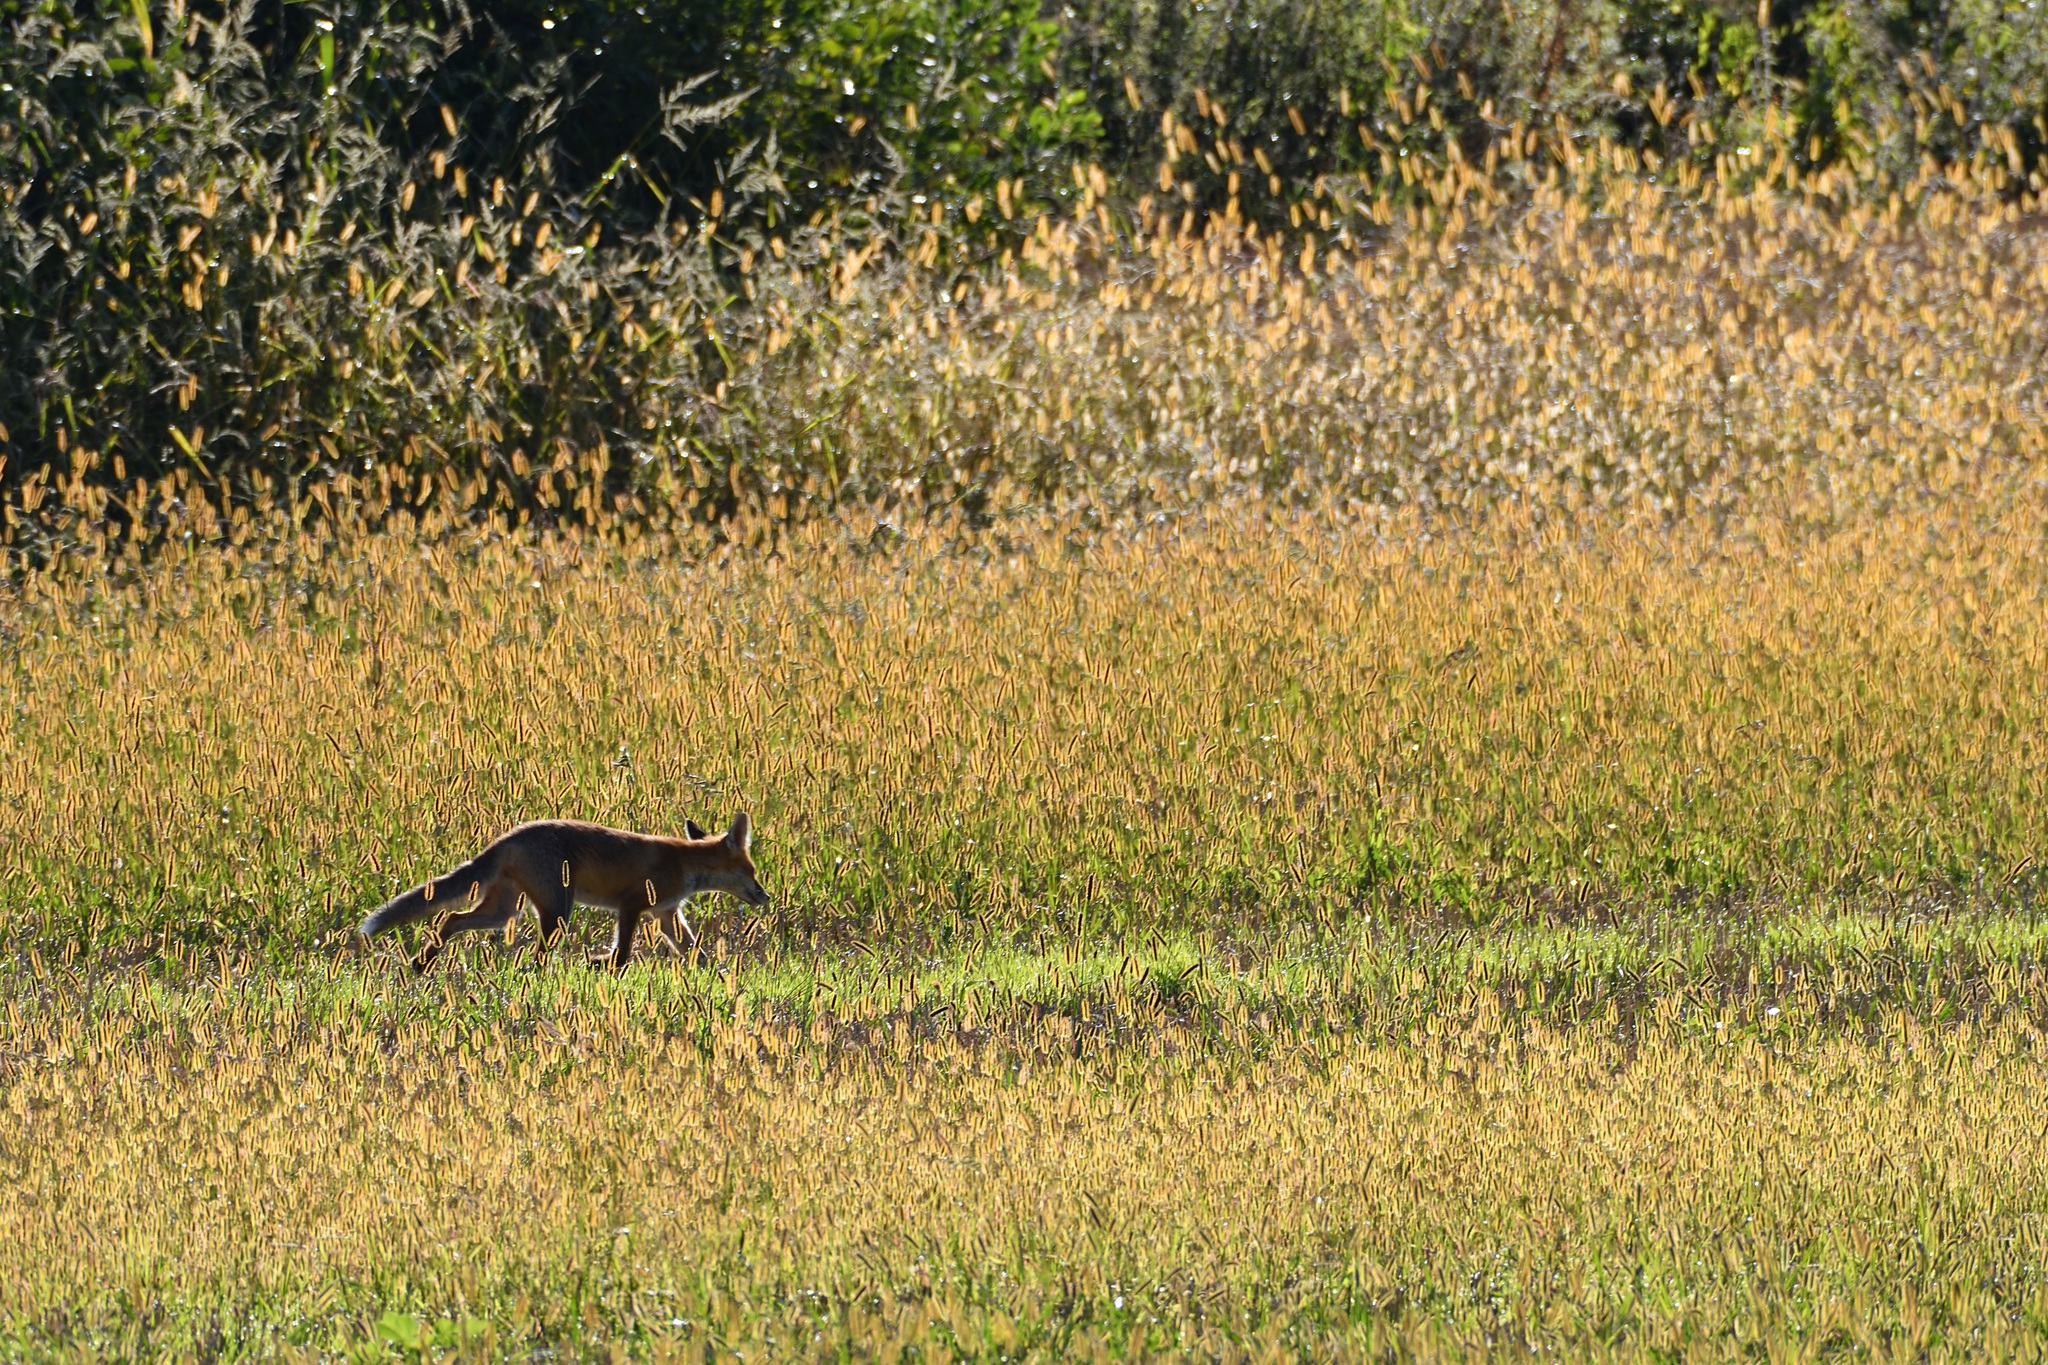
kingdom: Animalia
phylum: Chordata
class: Mammalia
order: Carnivora
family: Canidae
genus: Vulpes
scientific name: Vulpes vulpes
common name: Red fox
